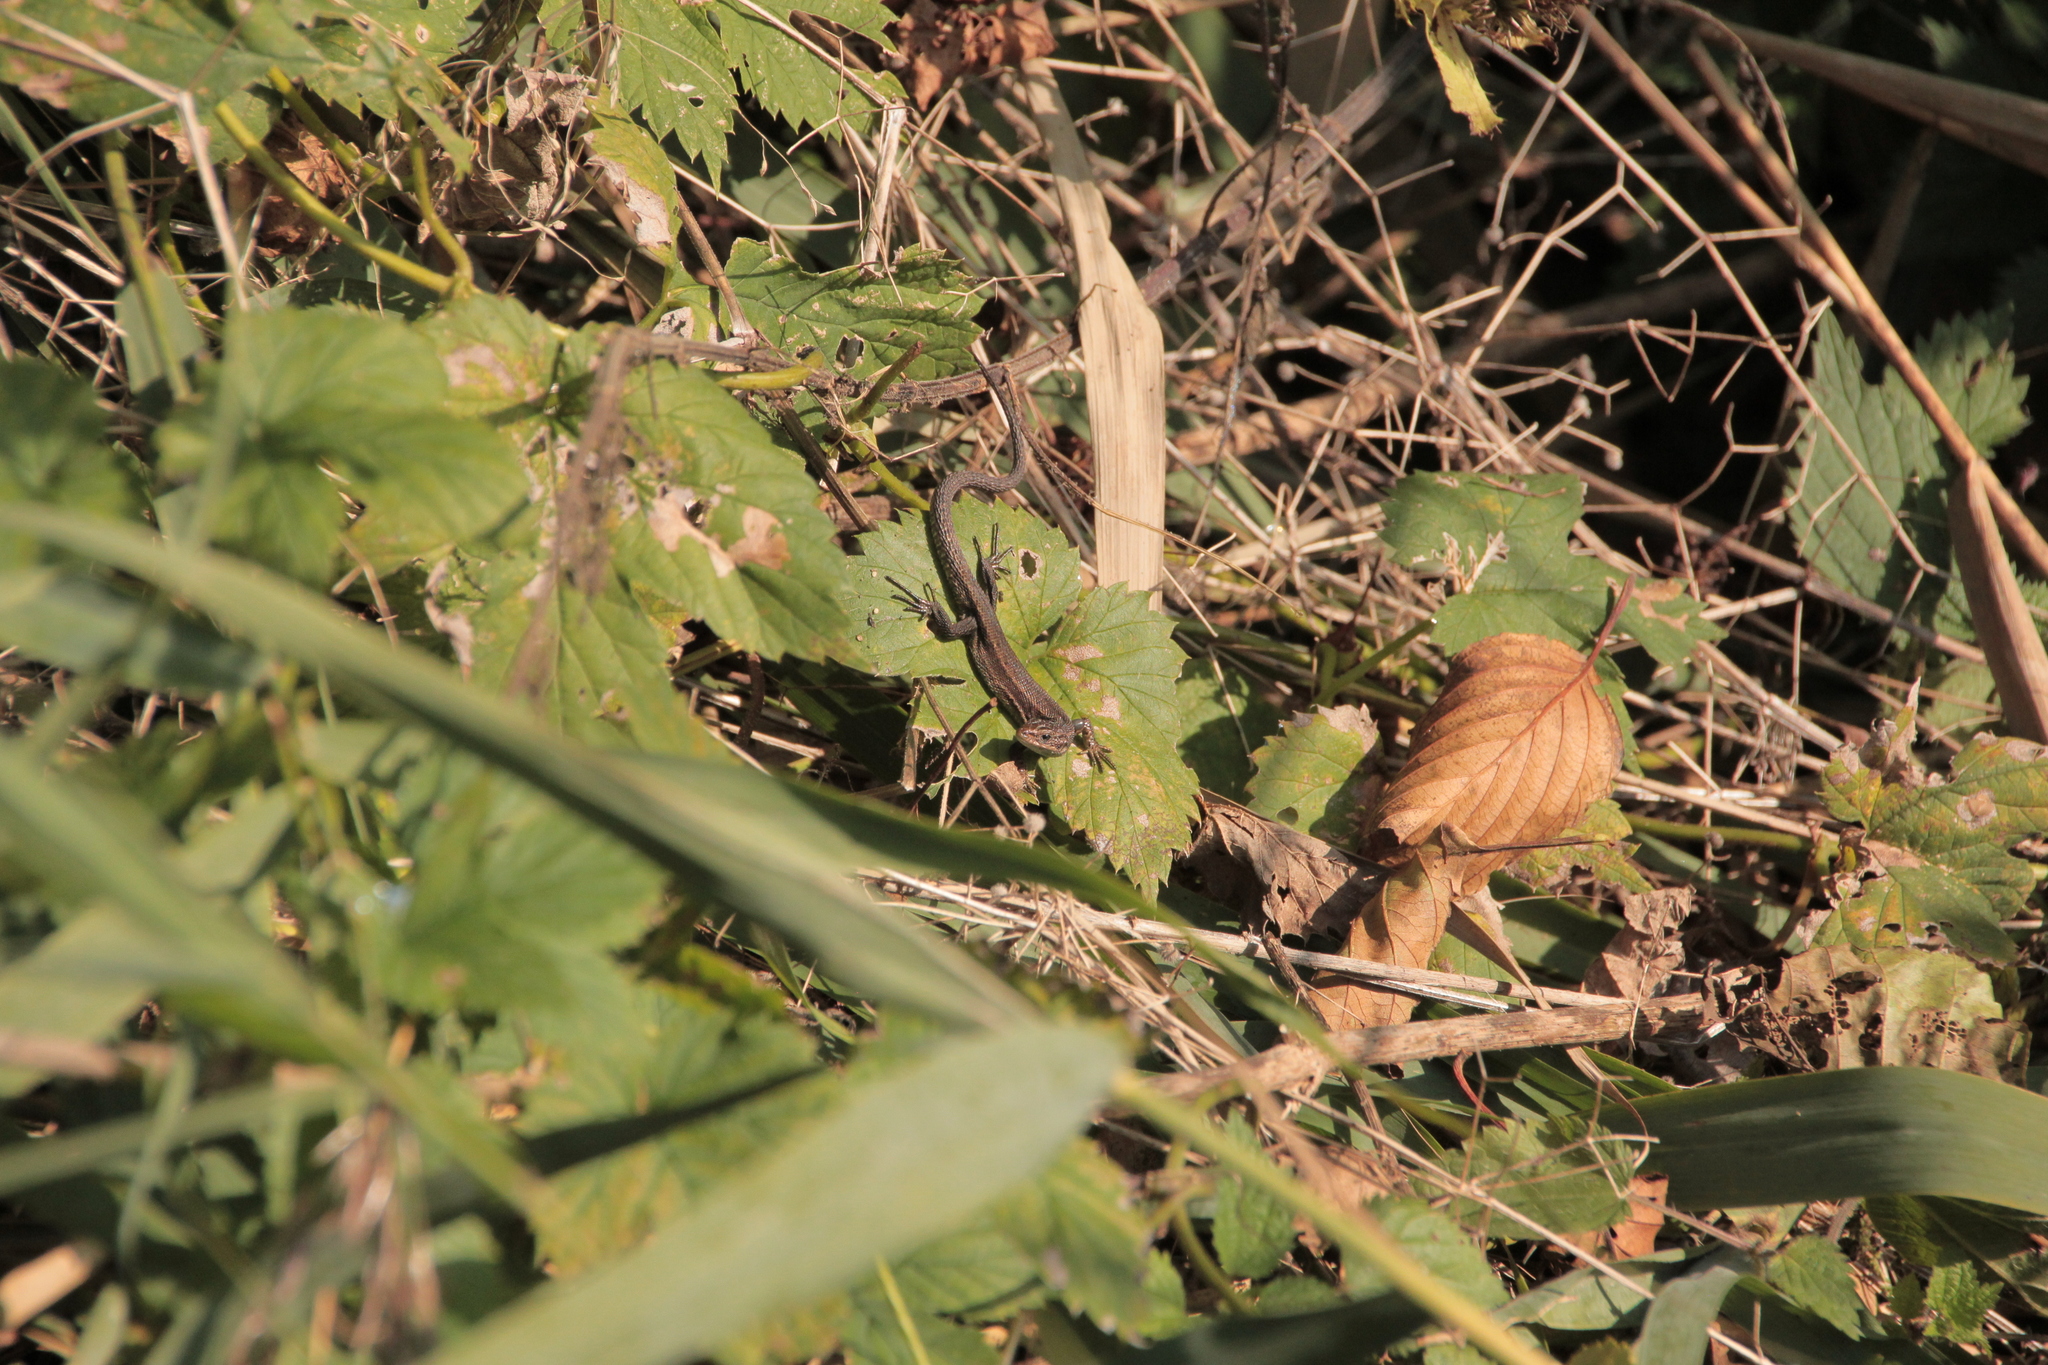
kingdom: Animalia
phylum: Chordata
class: Squamata
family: Lacertidae
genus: Zootoca
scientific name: Zootoca vivipara
